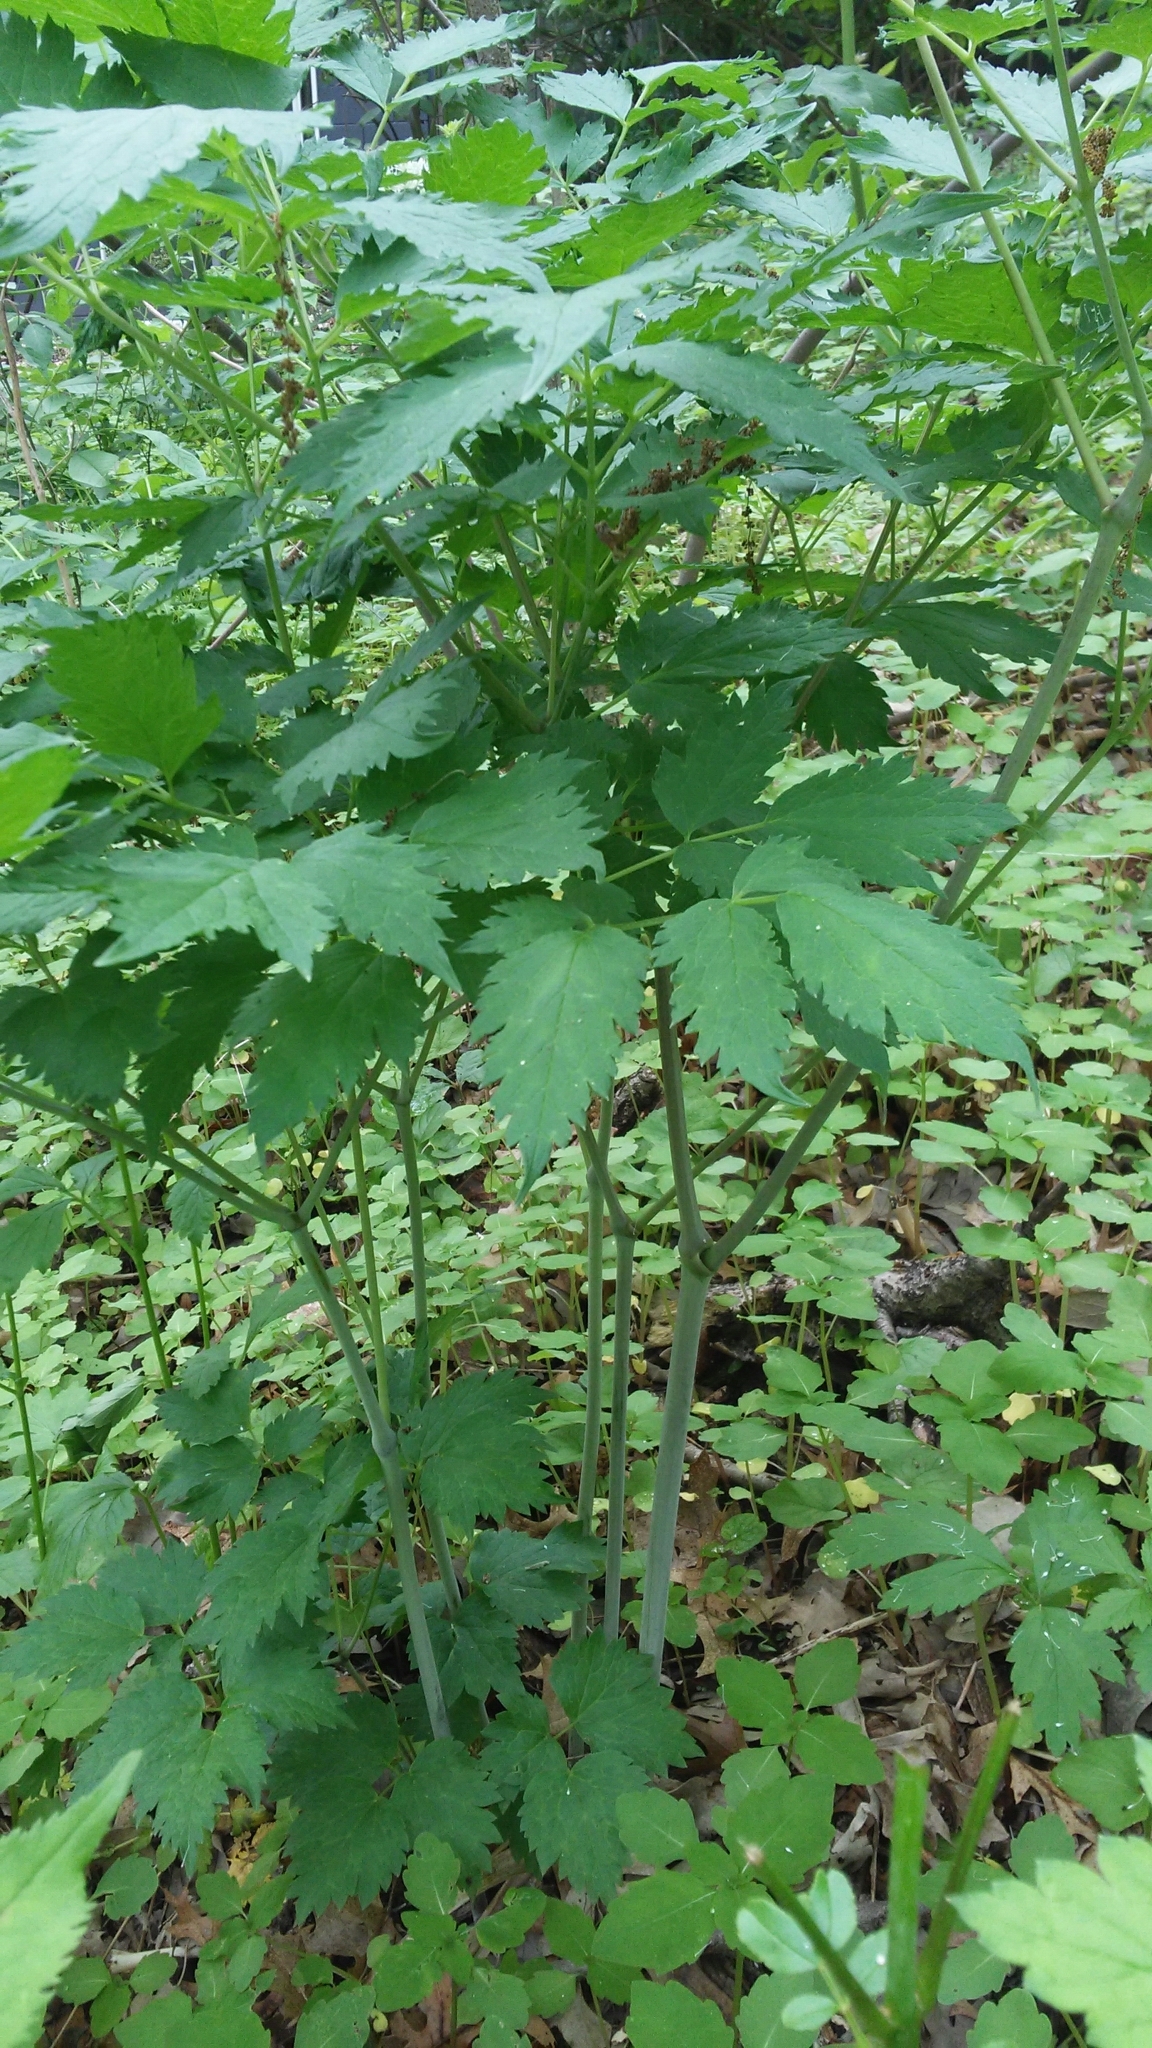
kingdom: Plantae
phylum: Tracheophyta
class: Magnoliopsida
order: Ranunculales
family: Ranunculaceae
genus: Actaea
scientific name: Actaea rubra
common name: Red baneberry
